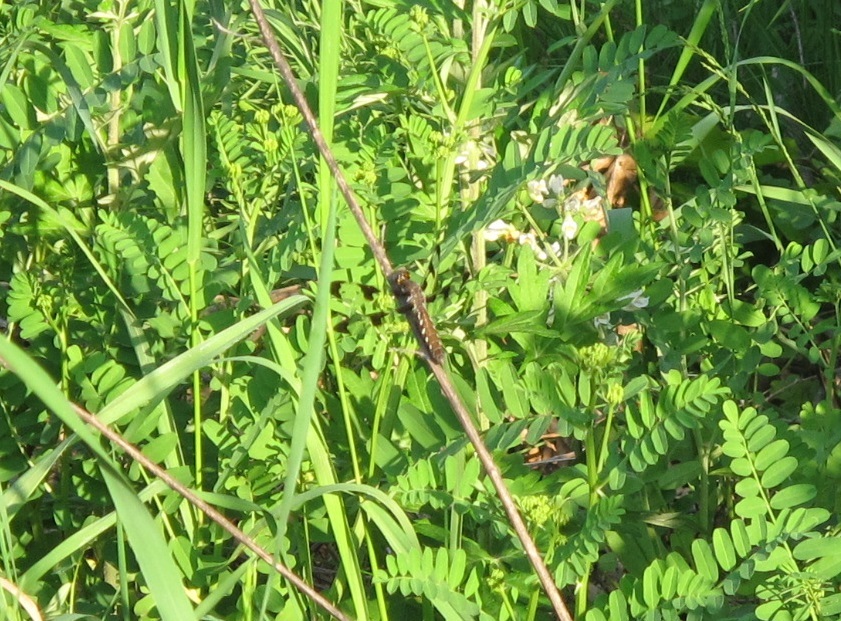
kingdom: Animalia
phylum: Arthropoda
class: Insecta
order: Odonata
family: Libellulidae
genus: Plathemis
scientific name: Plathemis lydia
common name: Common whitetail
